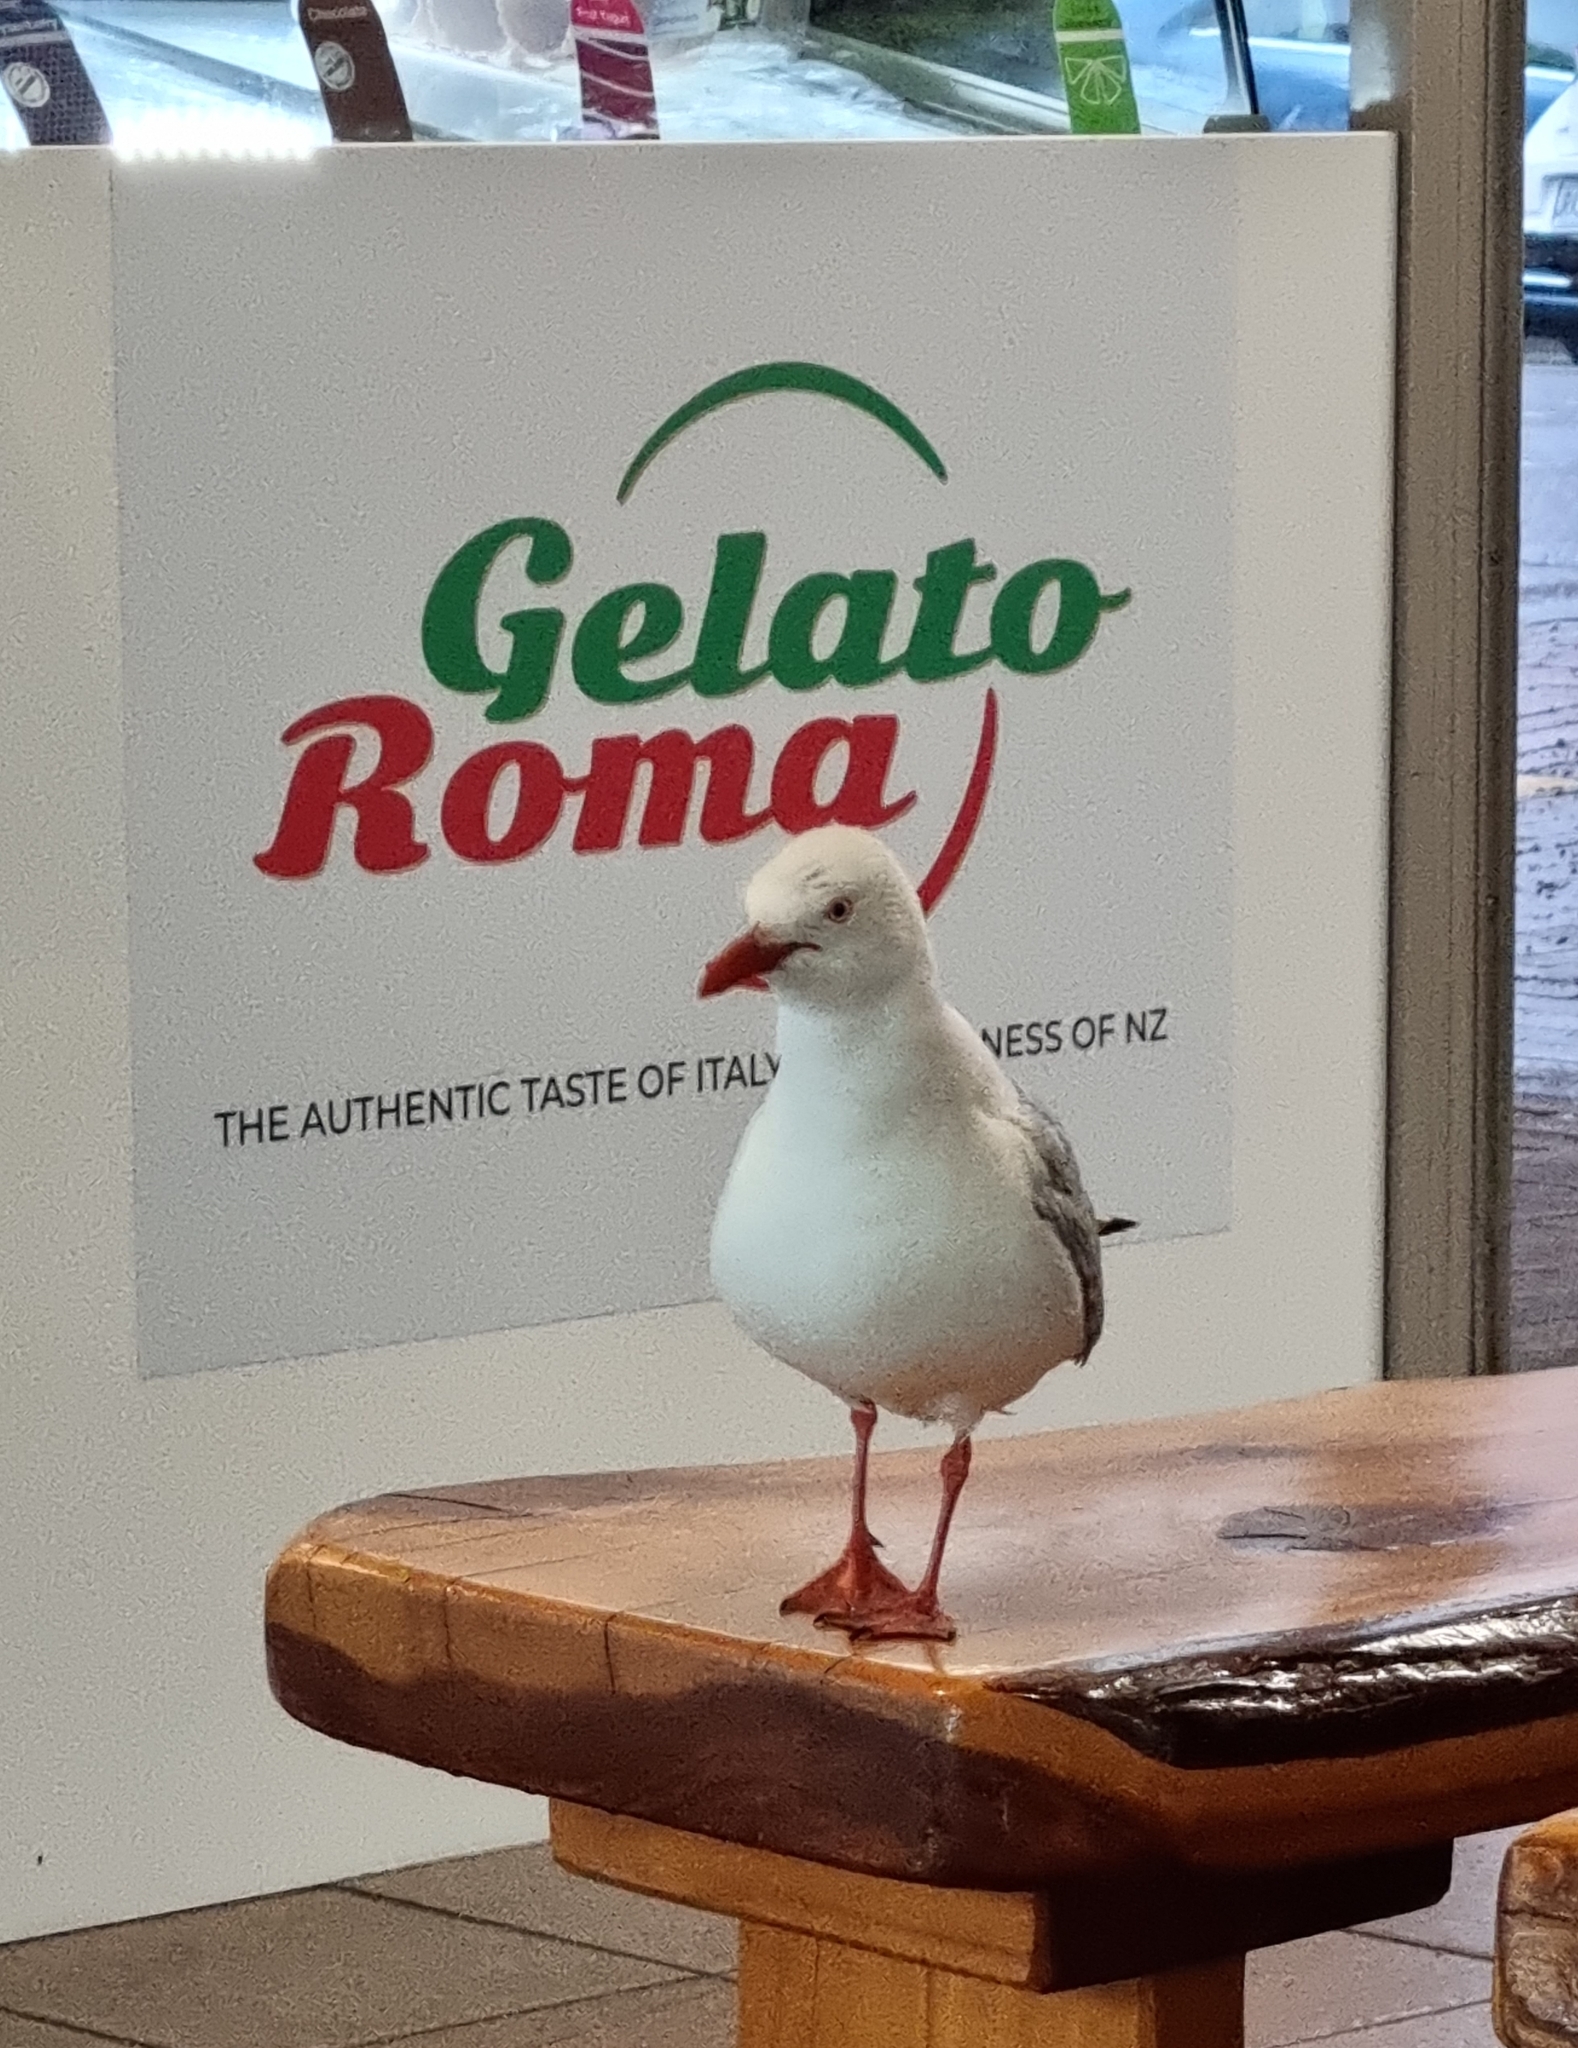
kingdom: Animalia
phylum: Chordata
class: Aves
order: Charadriiformes
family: Laridae
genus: Chroicocephalus
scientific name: Chroicocephalus novaehollandiae
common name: Silver gull
